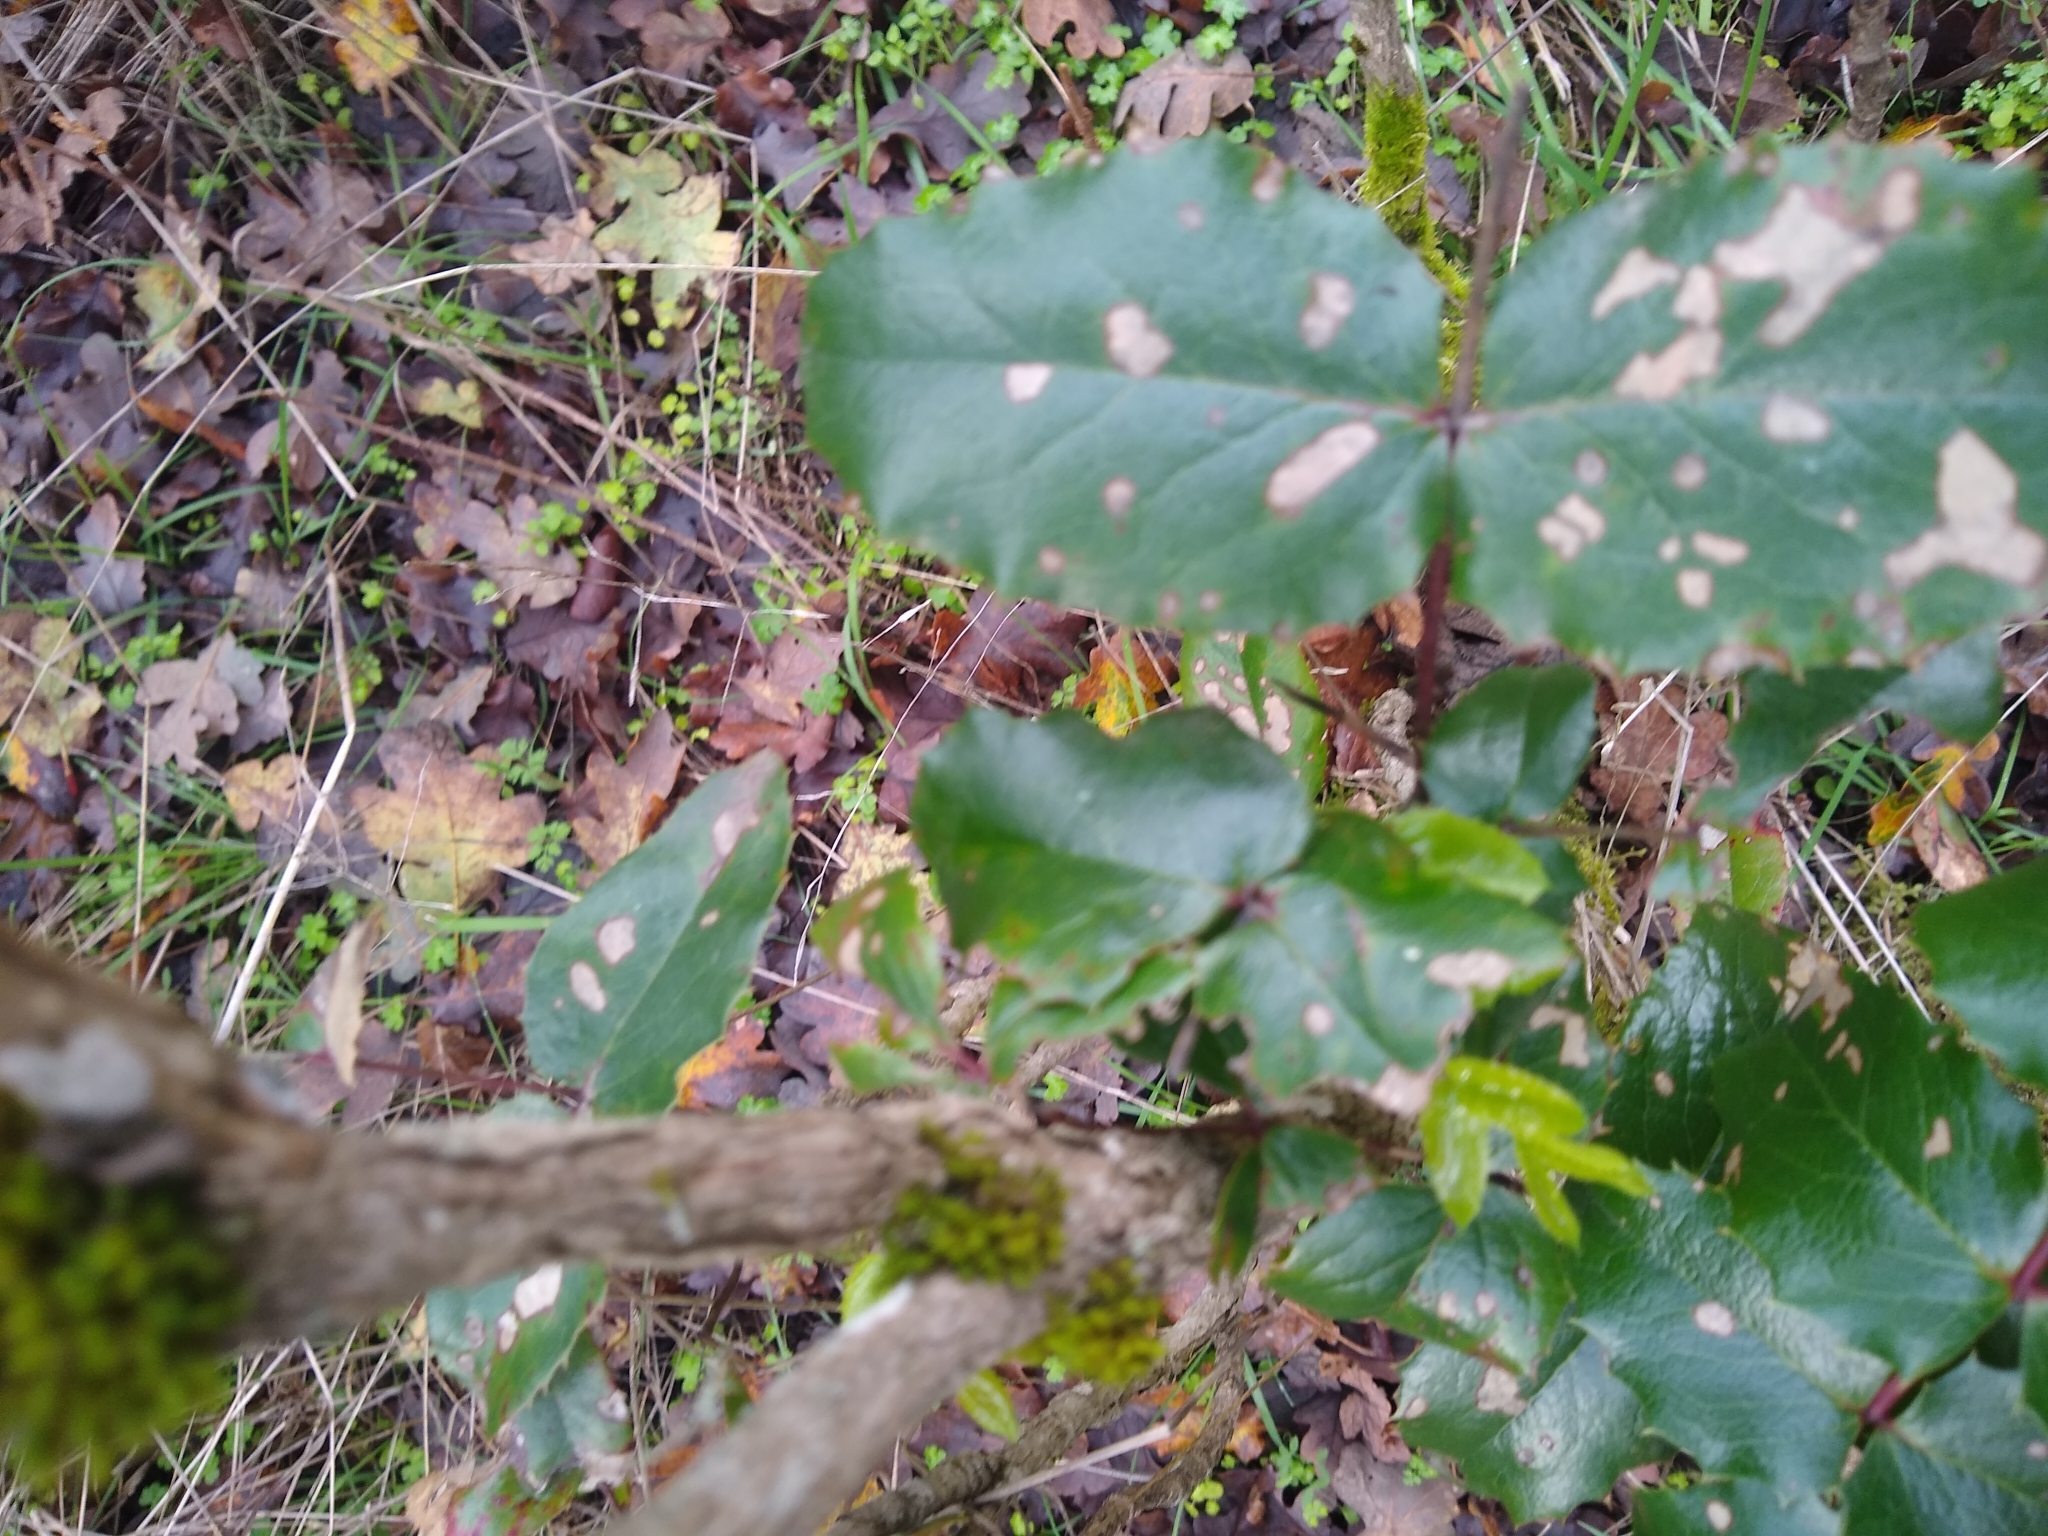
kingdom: Plantae
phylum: Tracheophyta
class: Magnoliopsida
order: Ranunculales
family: Berberidaceae
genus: Mahonia
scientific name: Mahonia aquifolium
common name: Oregon-grape
